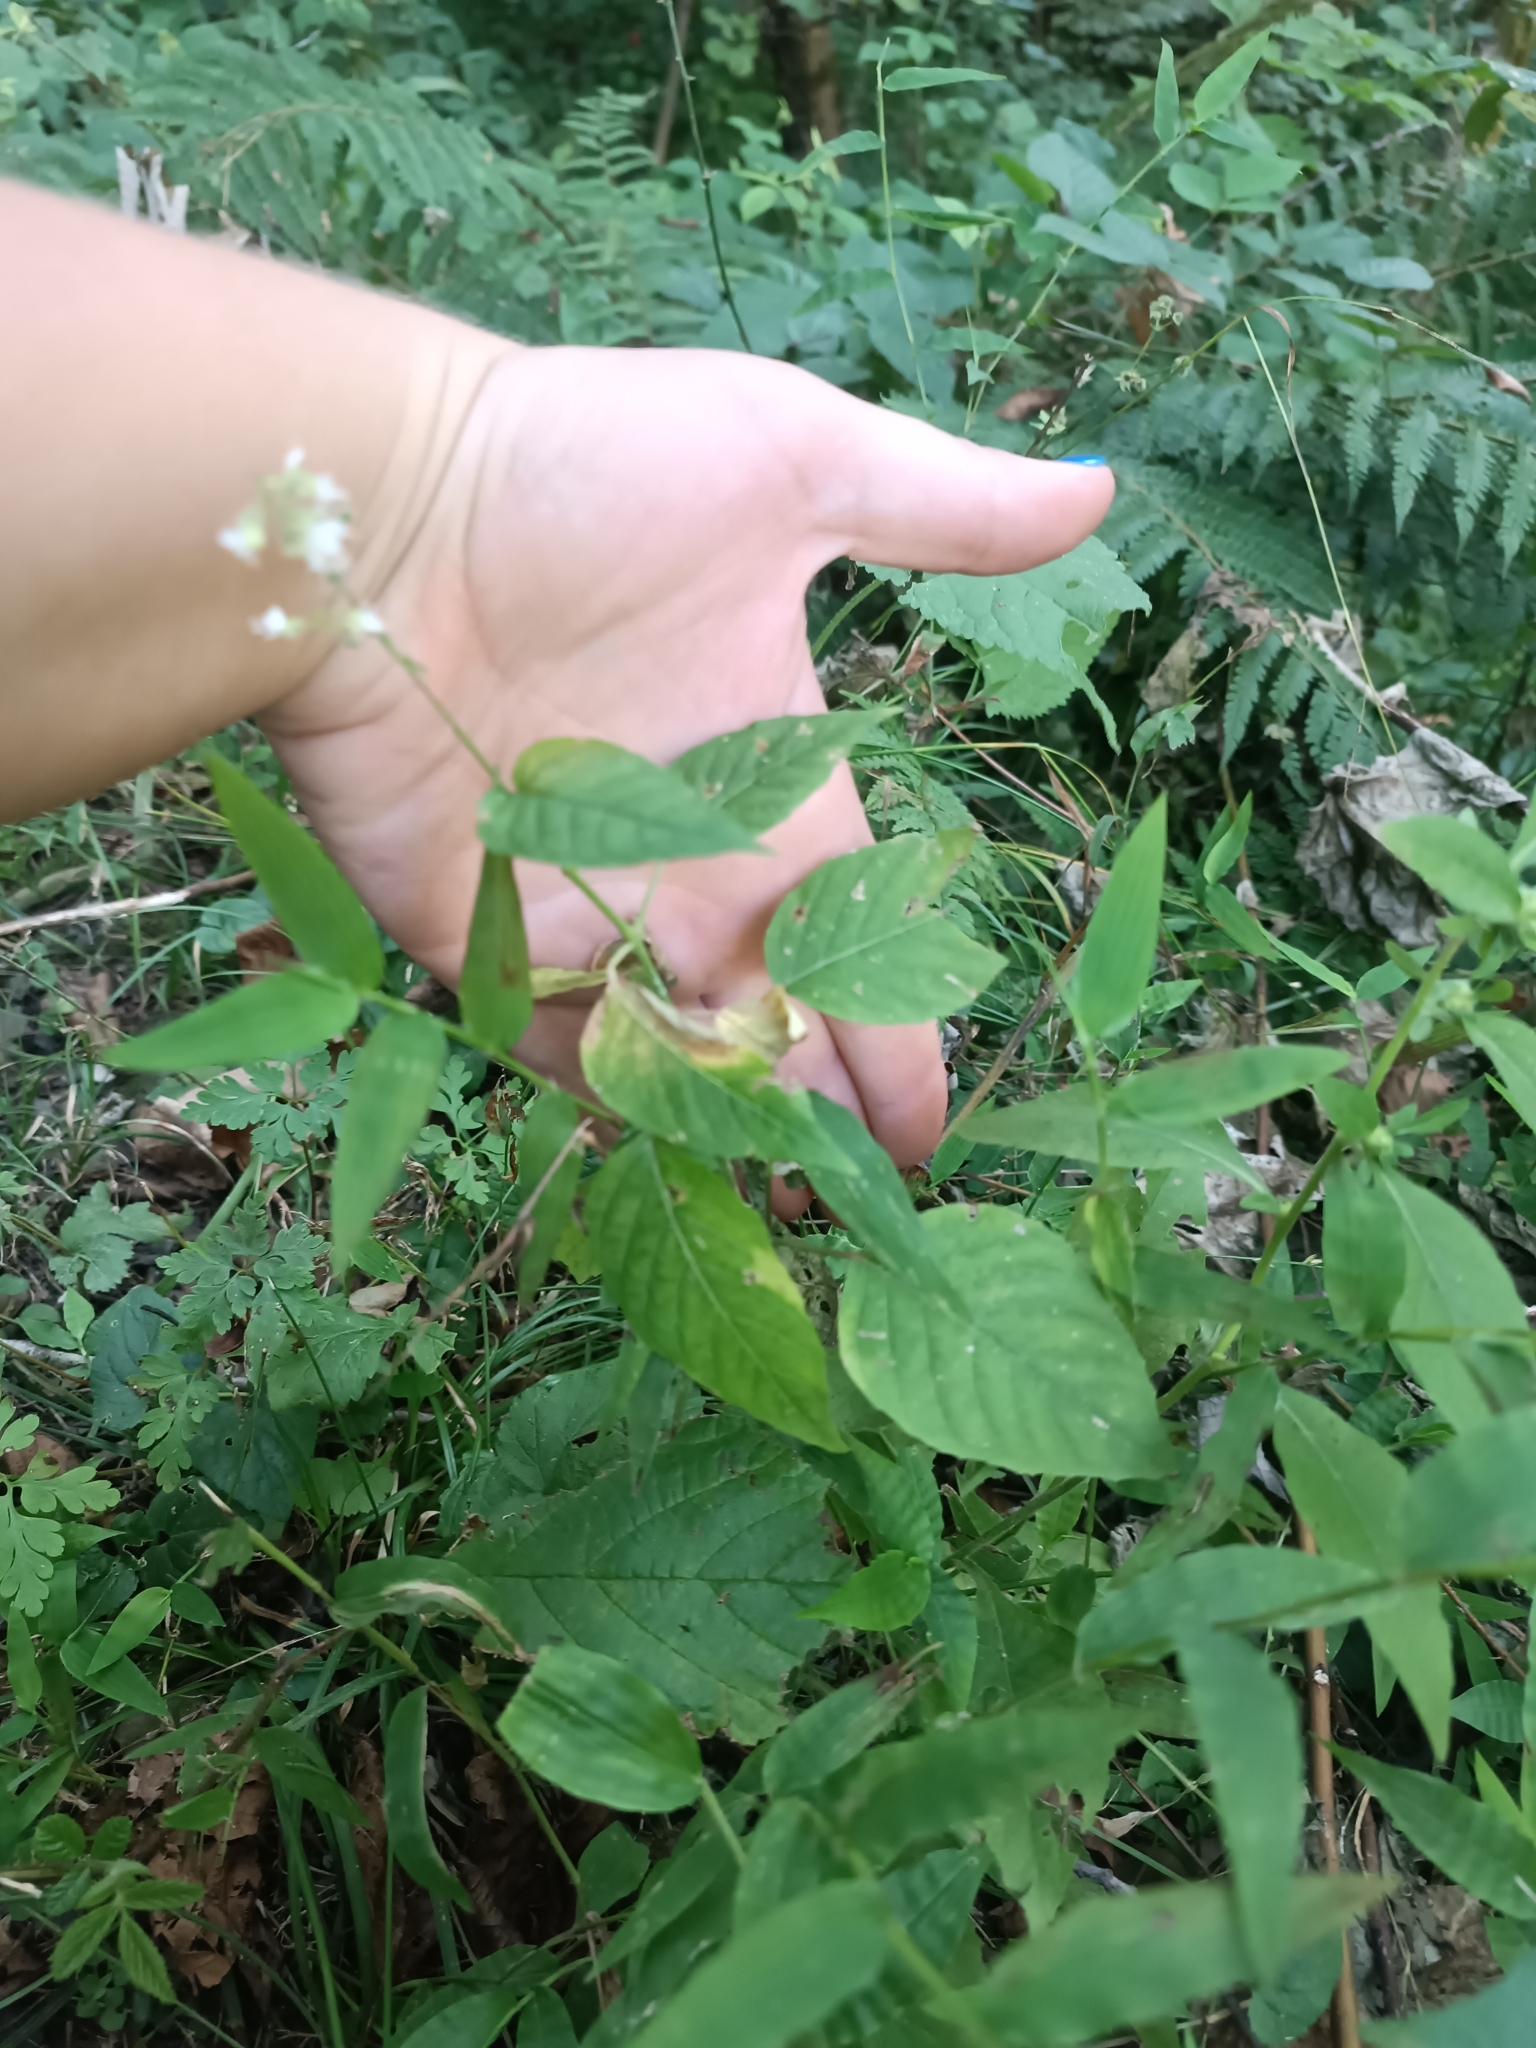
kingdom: Plantae
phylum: Tracheophyta
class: Magnoliopsida
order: Myrtales
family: Onagraceae
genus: Circaea
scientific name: Circaea lutetiana
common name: Enchanter's-nightshade
